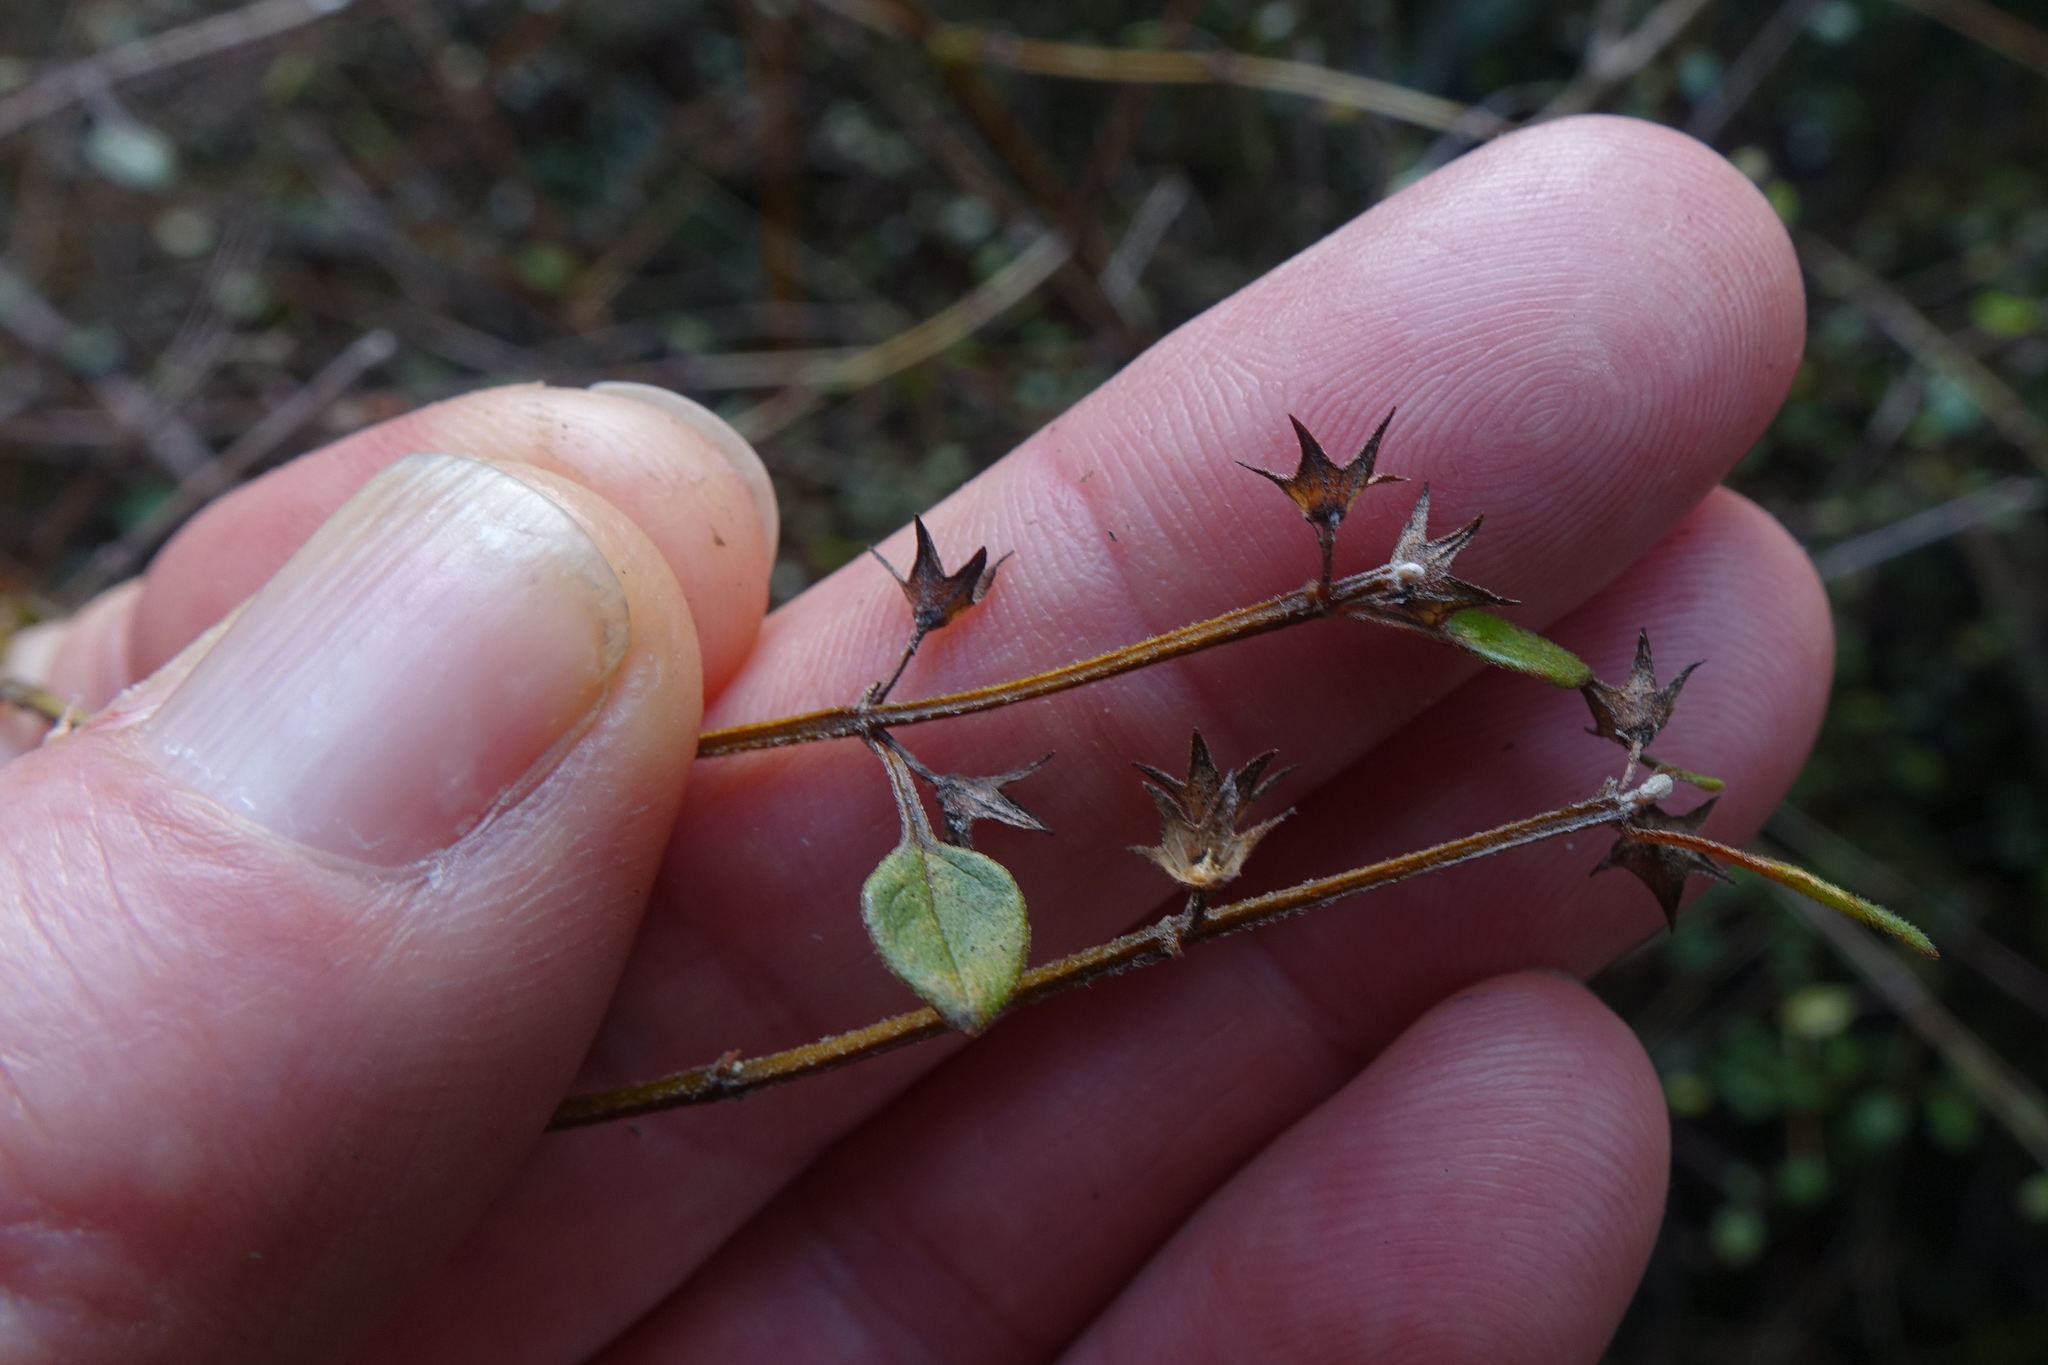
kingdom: Plantae
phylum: Tracheophyta
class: Magnoliopsida
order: Lamiales
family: Lamiaceae
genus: Teucrium
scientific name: Teucrium parvifolium
